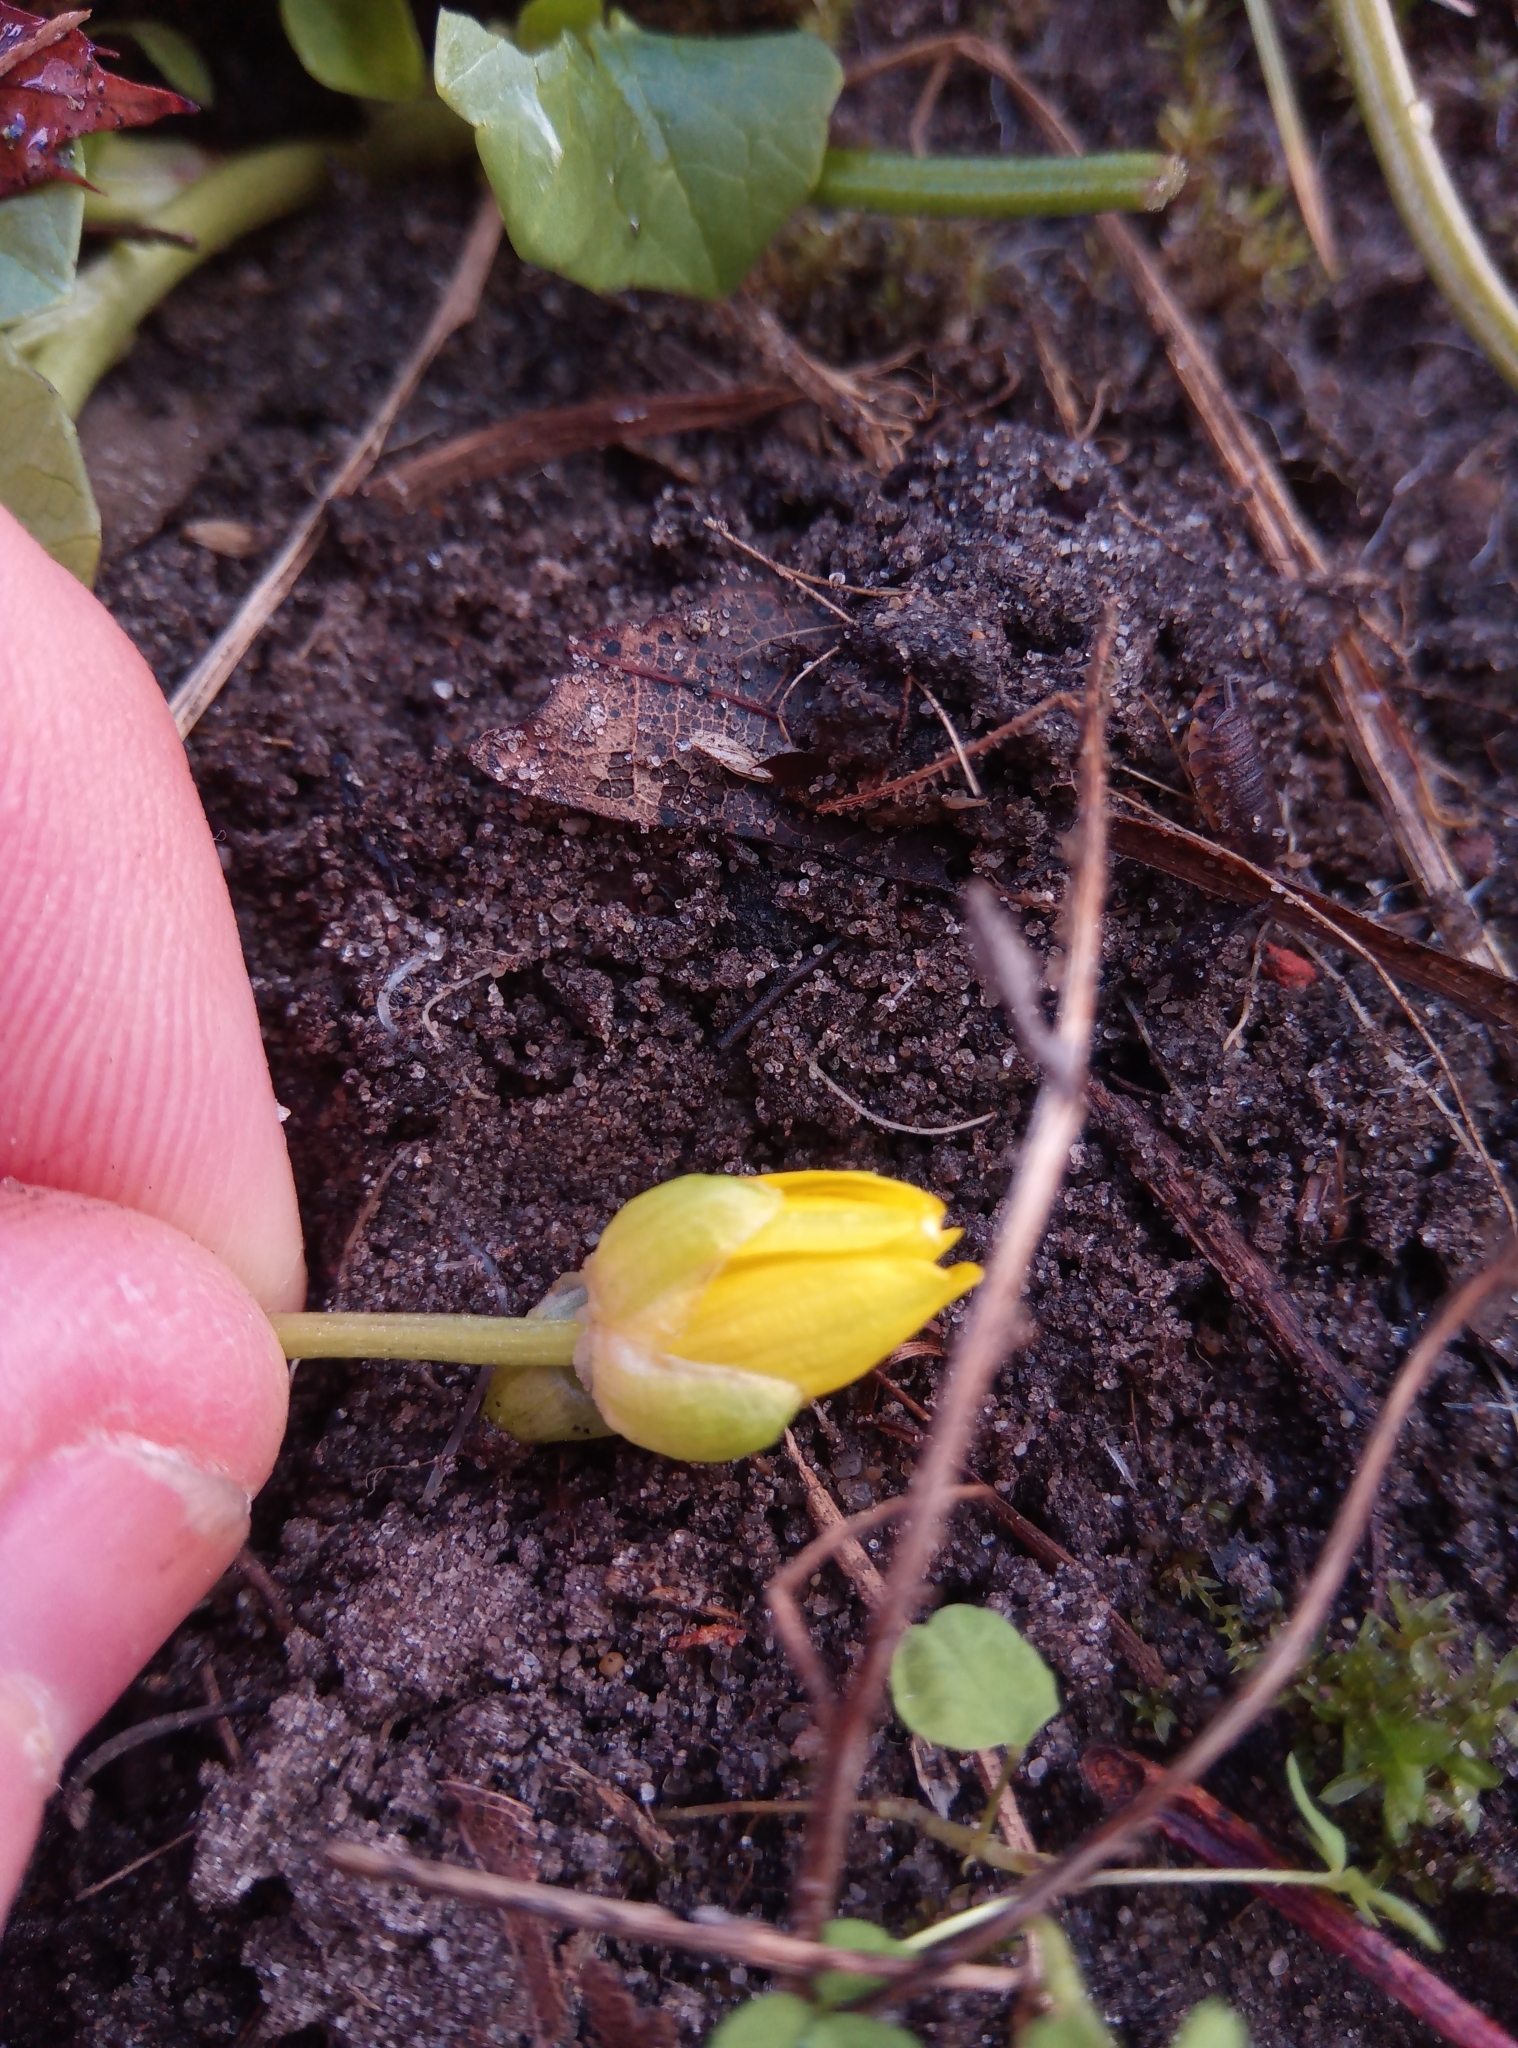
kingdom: Plantae
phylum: Tracheophyta
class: Magnoliopsida
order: Ranunculales
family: Ranunculaceae
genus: Ficaria
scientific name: Ficaria verna
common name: Lesser celandine
